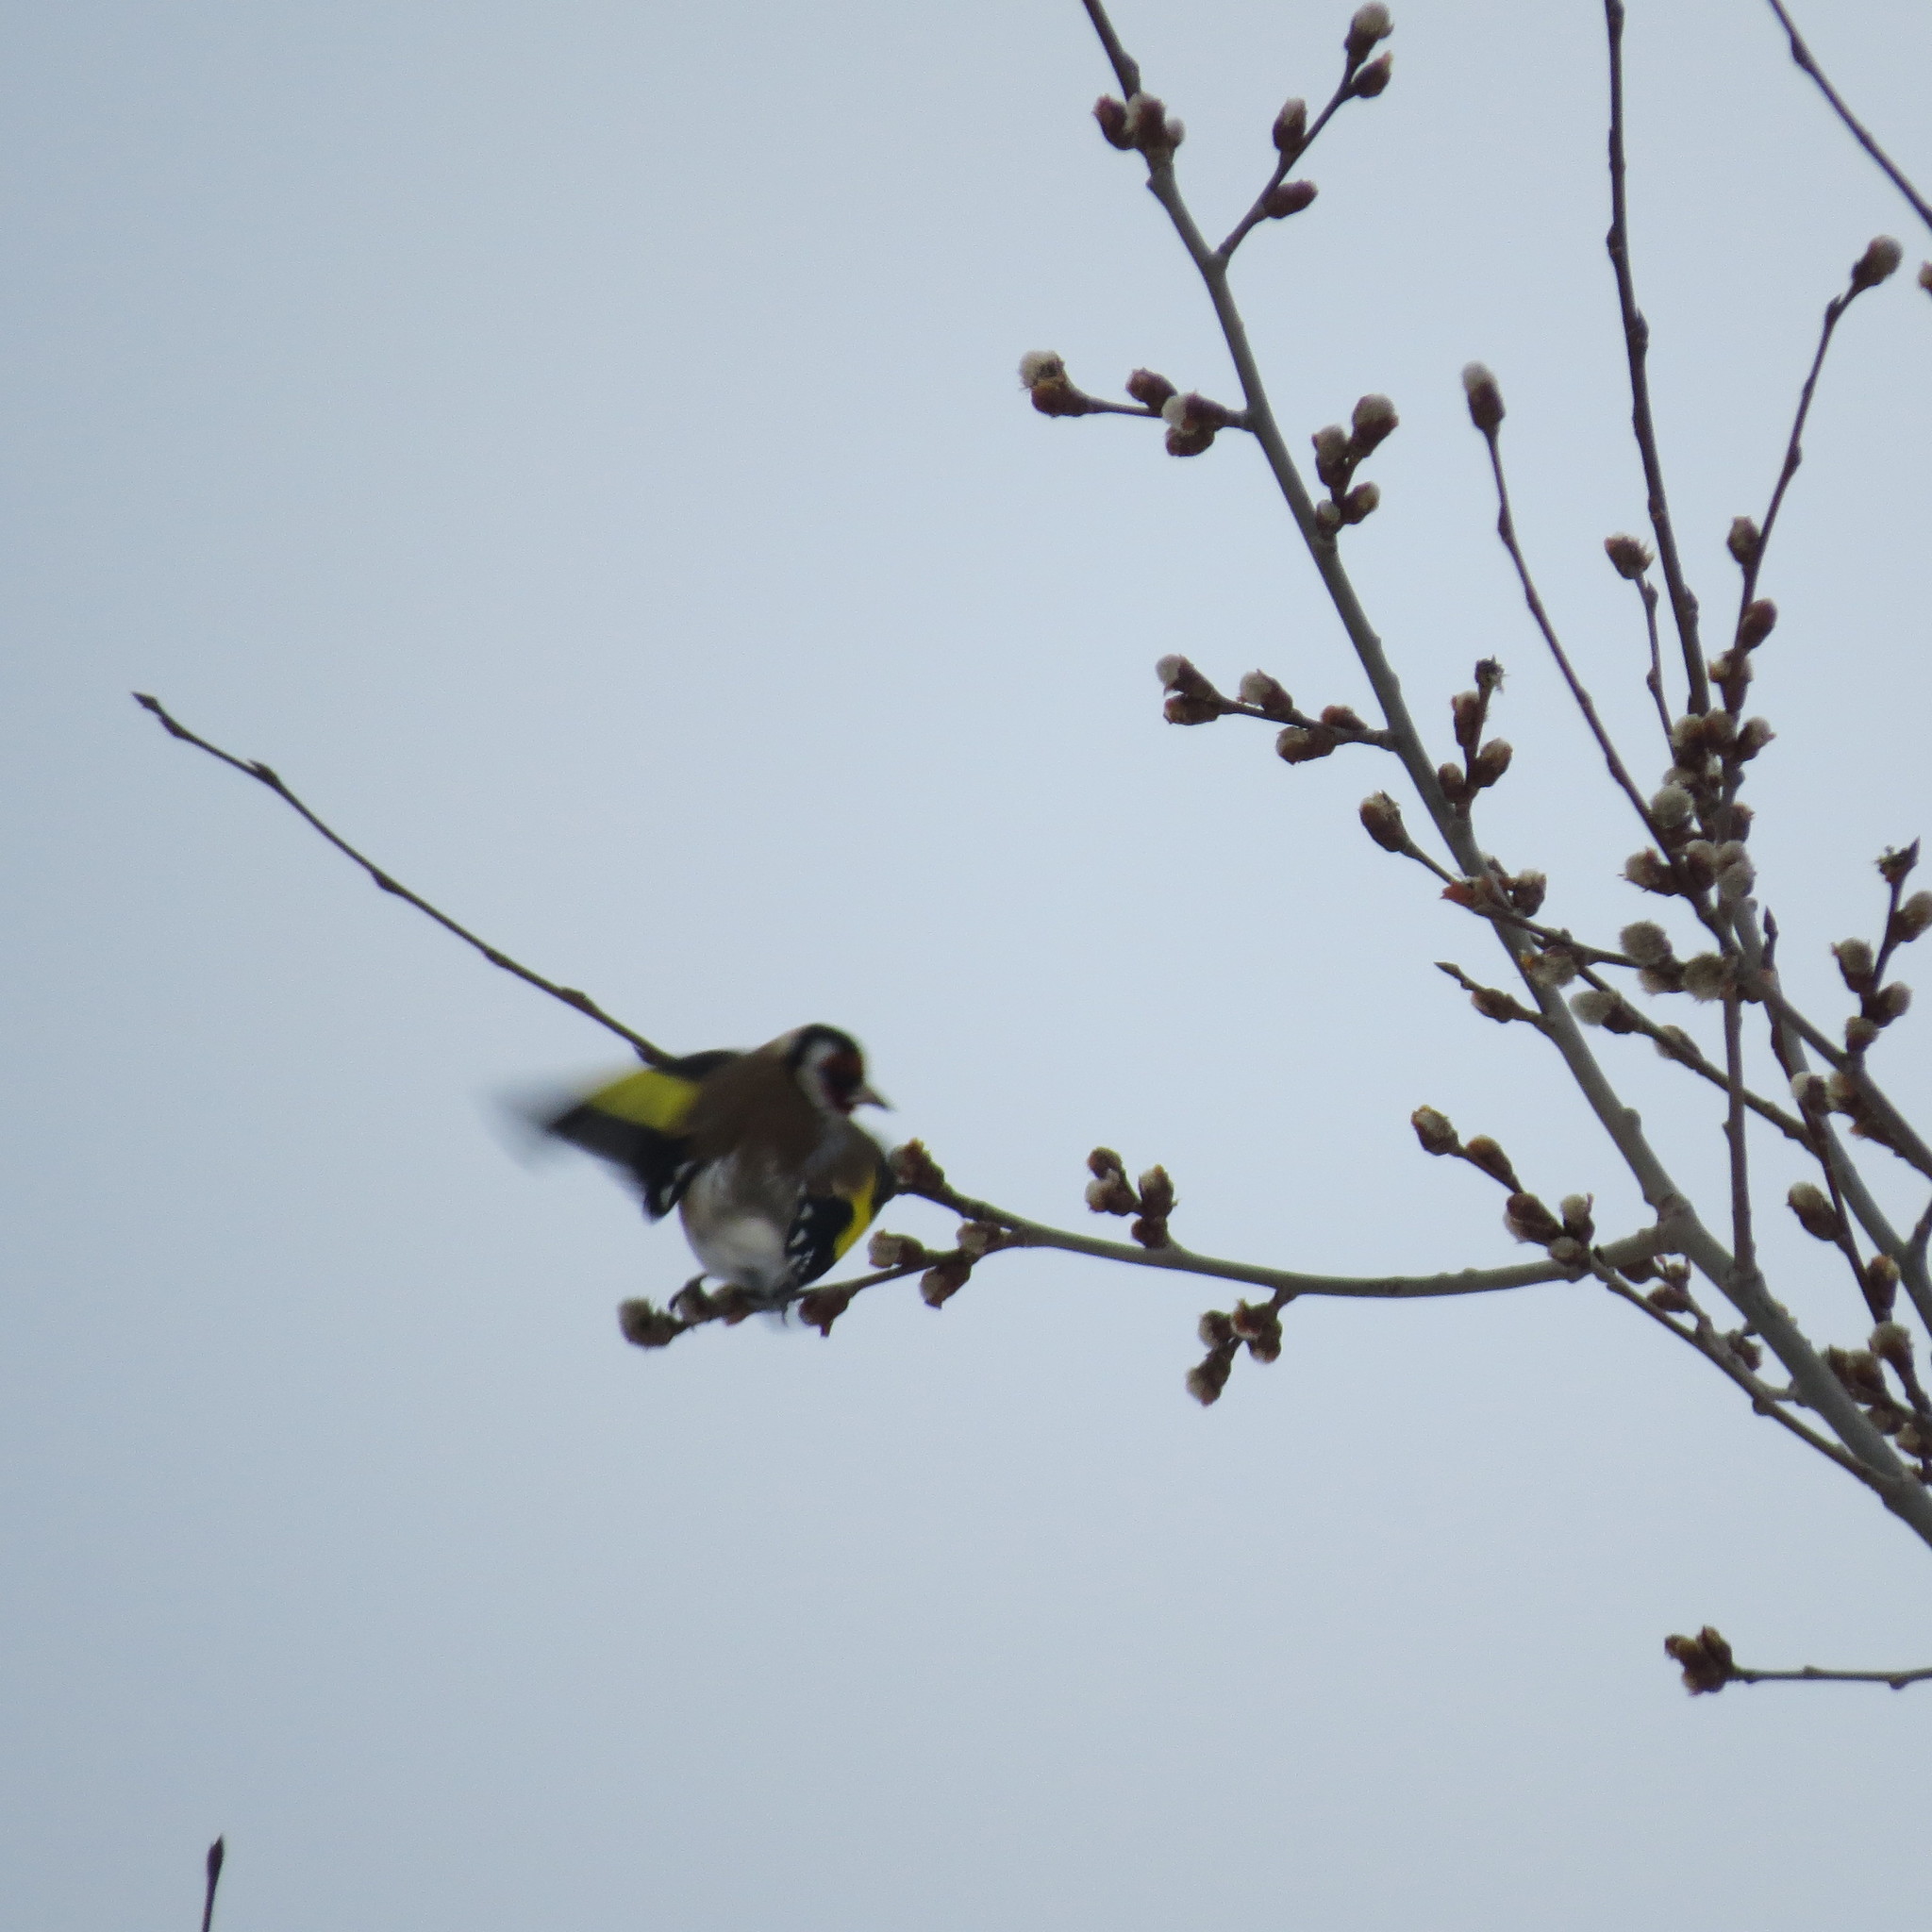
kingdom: Animalia
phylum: Chordata
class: Aves
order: Passeriformes
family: Fringillidae
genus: Carduelis
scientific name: Carduelis carduelis
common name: European goldfinch
